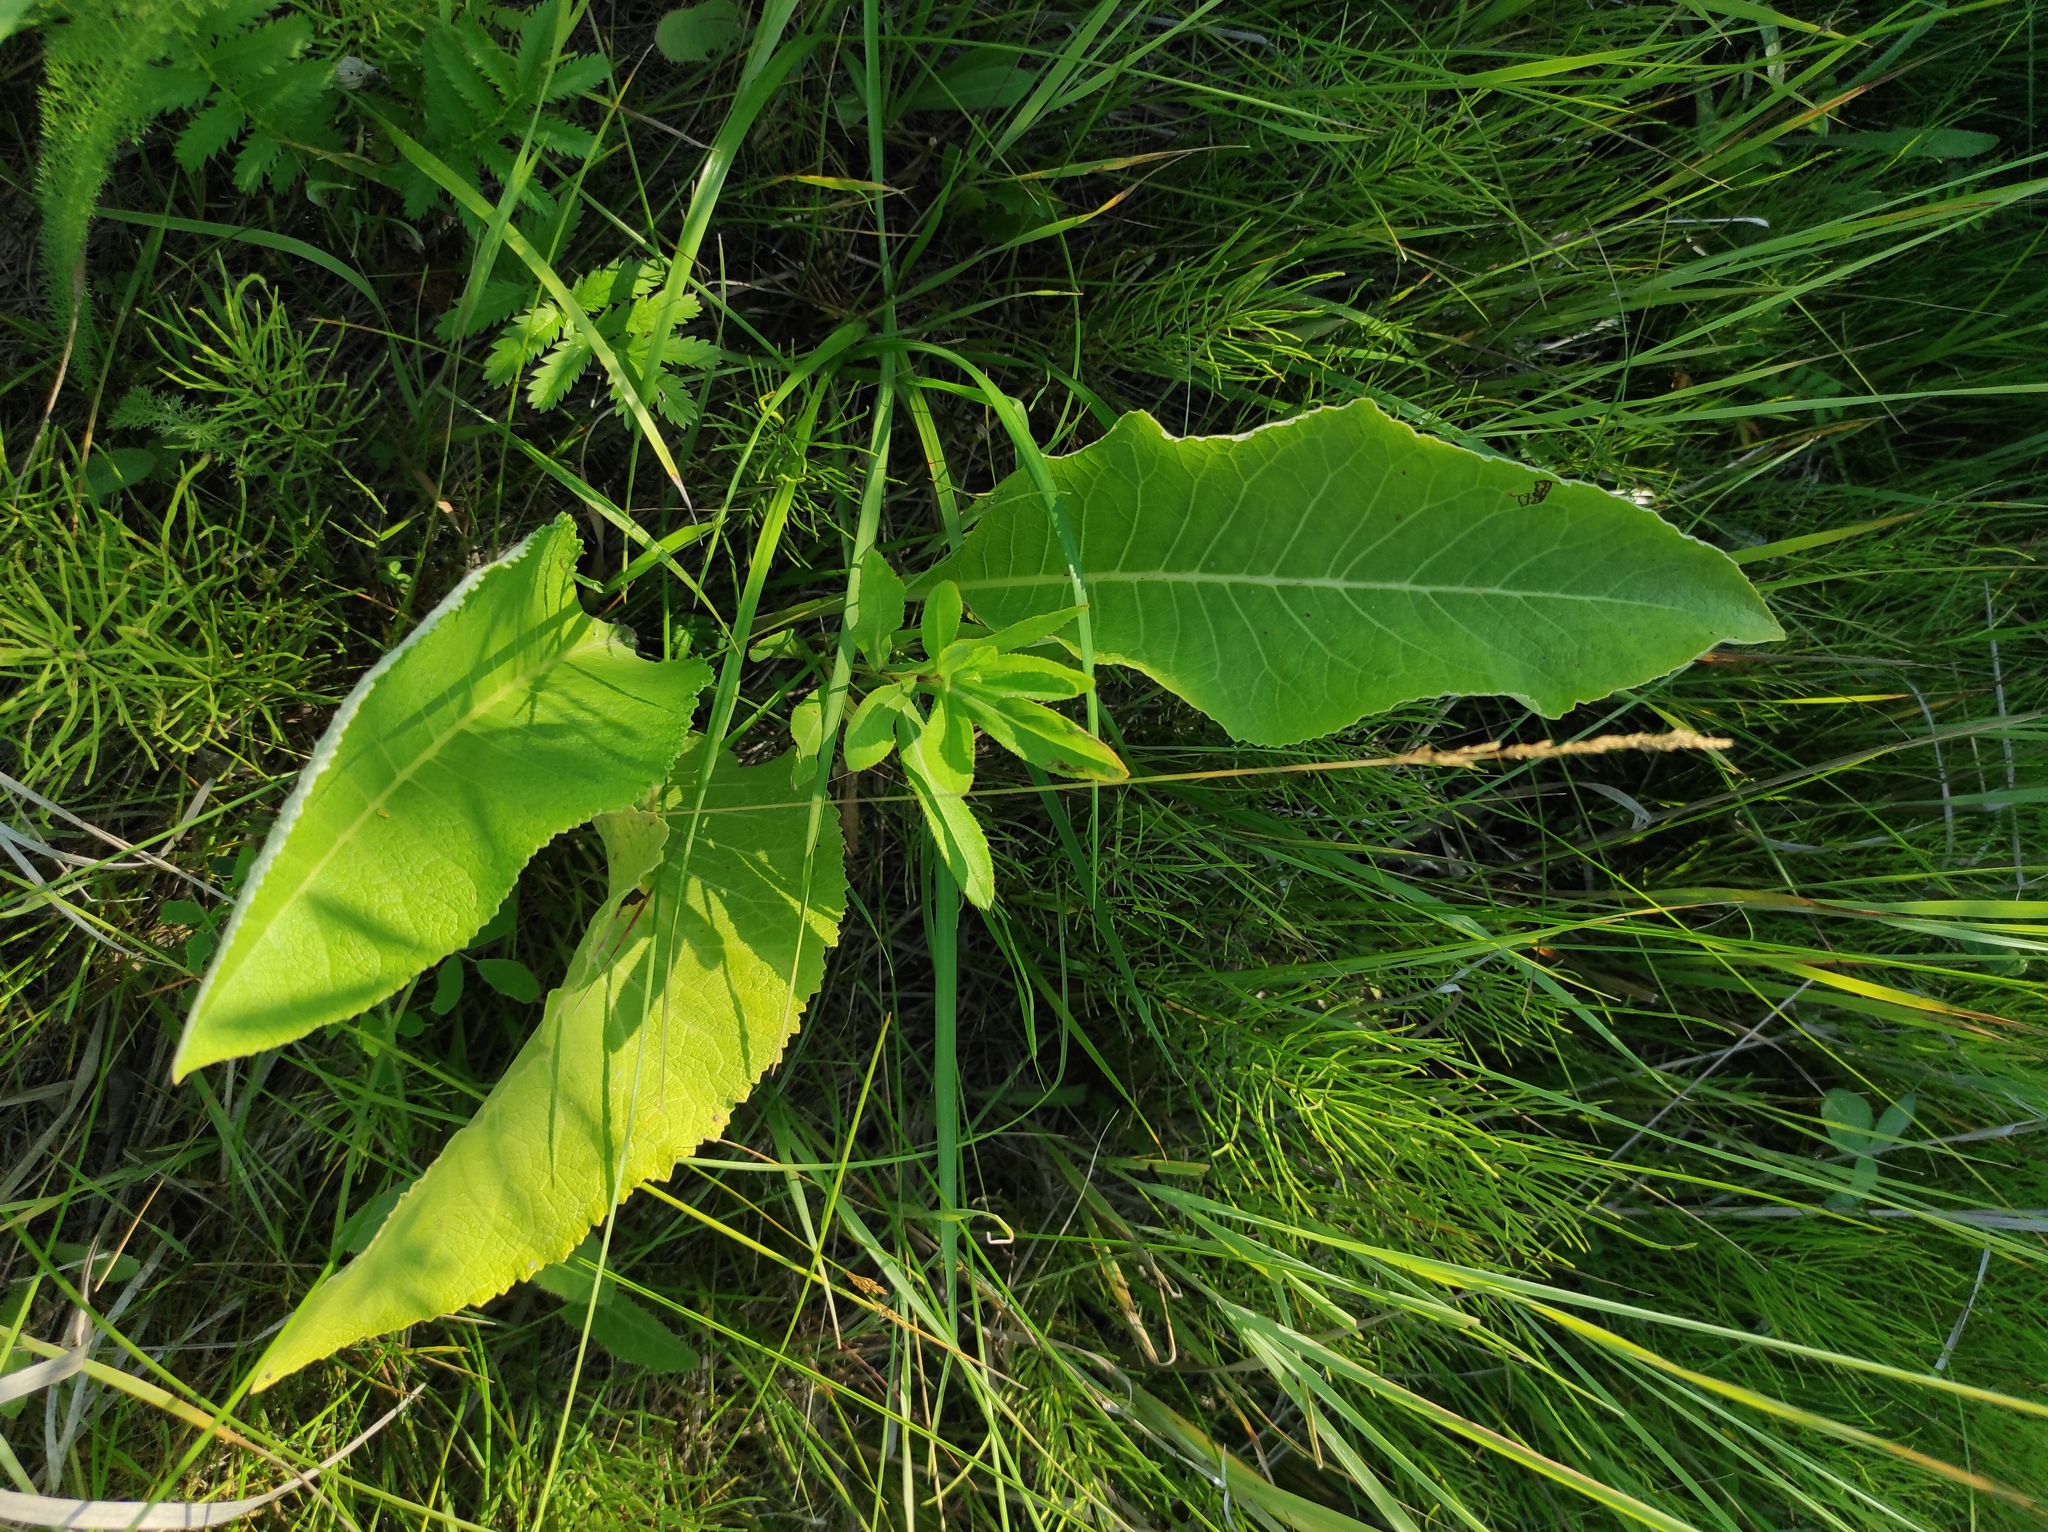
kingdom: Plantae
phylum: Tracheophyta
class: Magnoliopsida
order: Asterales
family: Asteraceae
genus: Inula
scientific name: Inula helenium
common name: Elecampane
